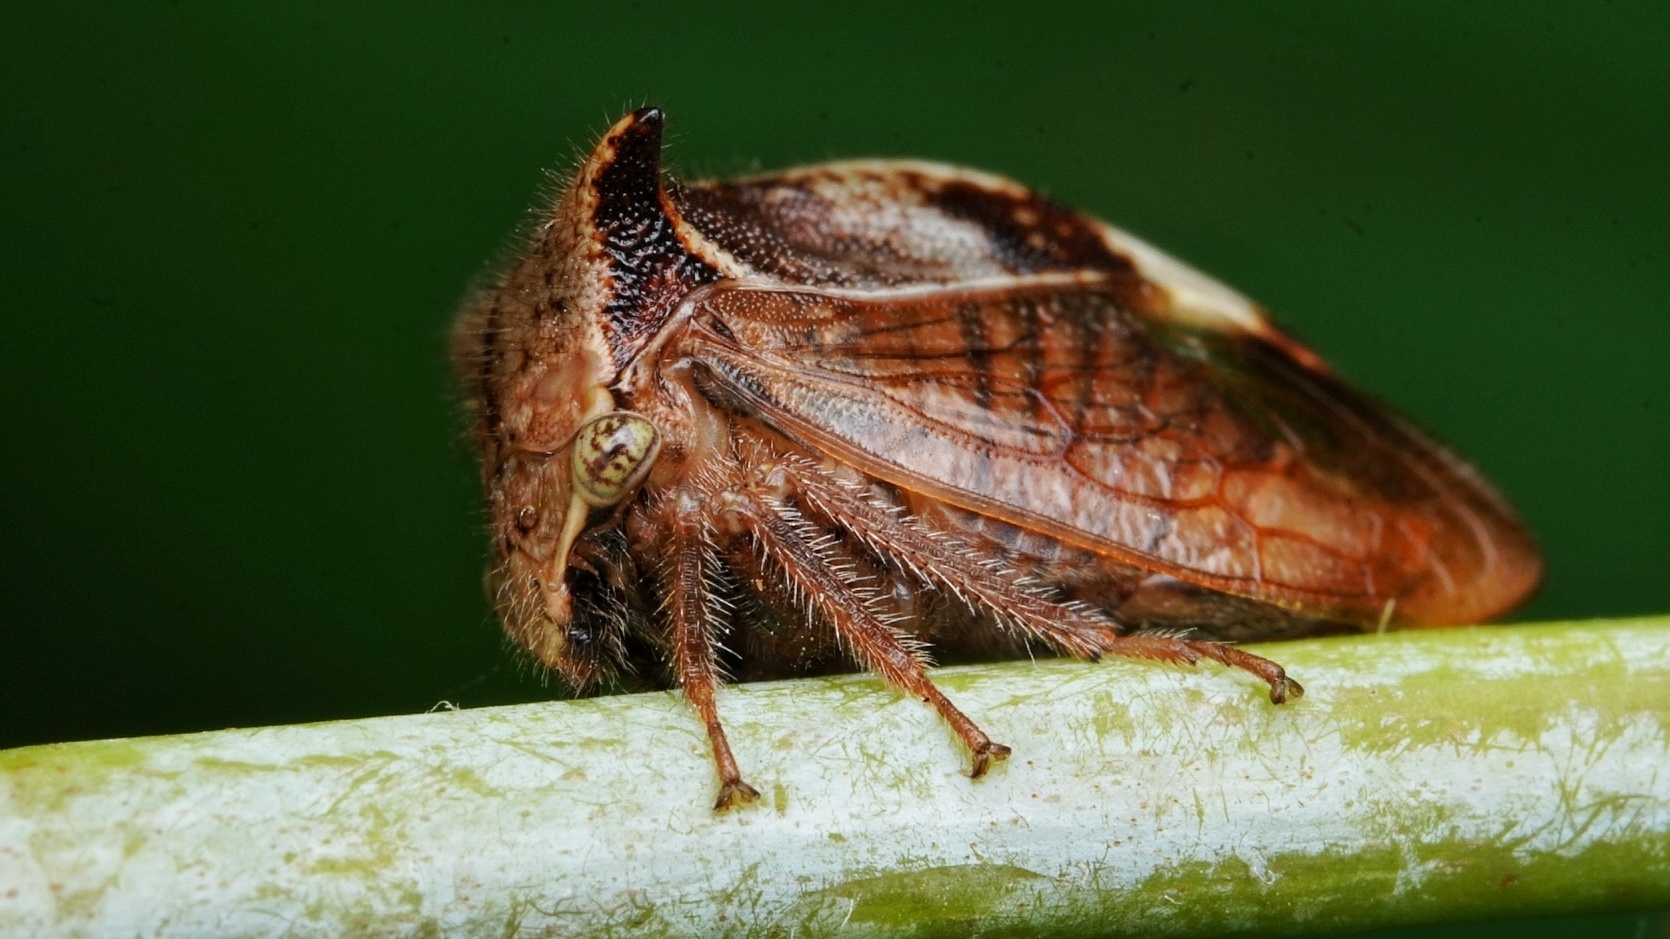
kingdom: Animalia
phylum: Arthropoda
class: Insecta
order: Hemiptera
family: Membracidae
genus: Stictocephala
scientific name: Stictocephala diceros
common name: Two-horned treehopper
